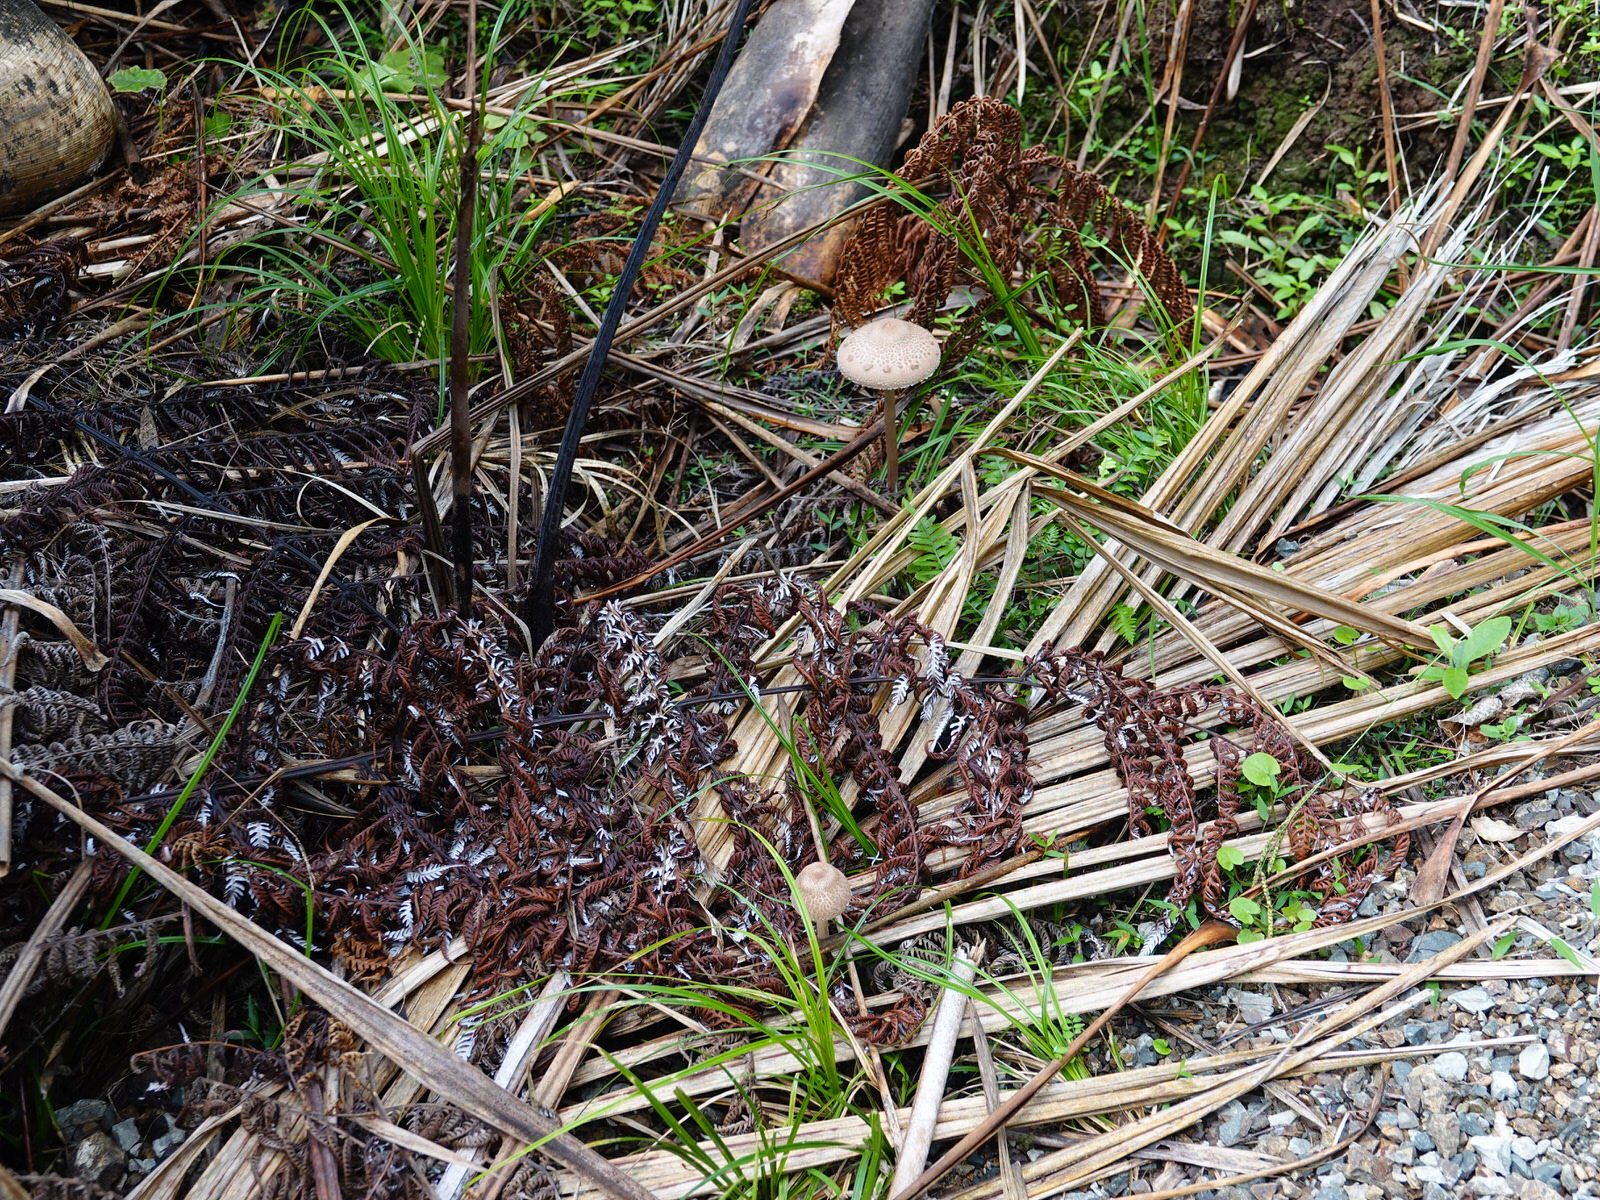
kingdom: Fungi
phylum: Basidiomycota
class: Agaricomycetes
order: Agaricales
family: Agaricaceae
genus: Macrolepiota
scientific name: Macrolepiota clelandii
